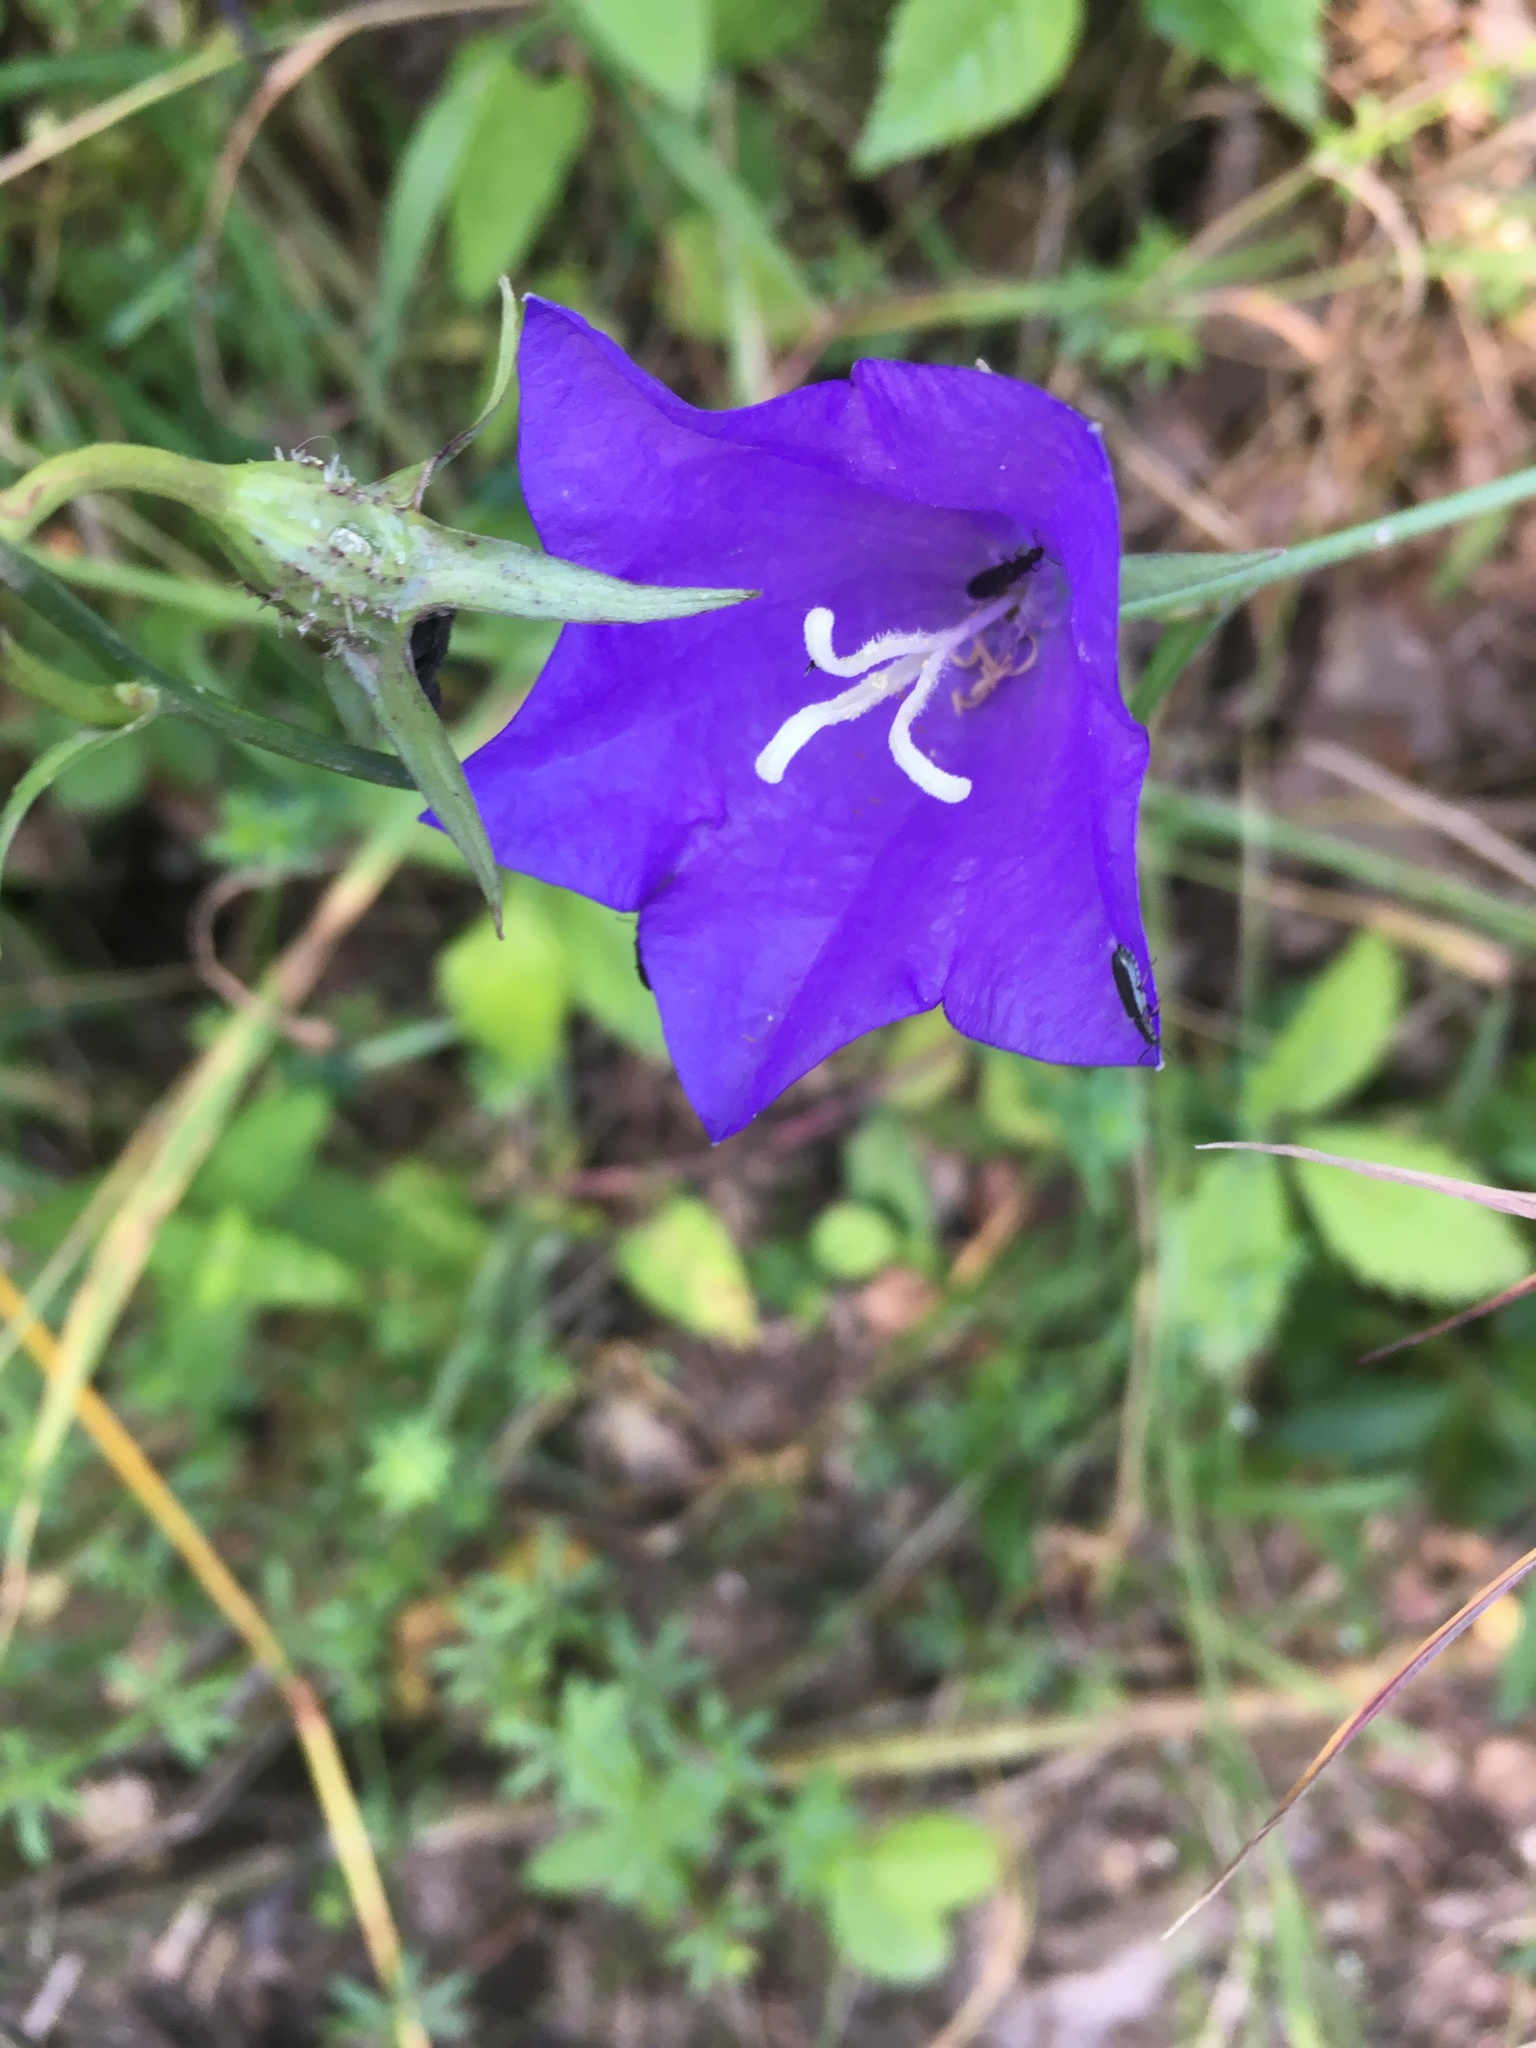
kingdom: Plantae
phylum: Tracheophyta
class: Magnoliopsida
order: Asterales
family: Campanulaceae
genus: Campanula
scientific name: Campanula persicifolia
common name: Peach-leaved bellflower
